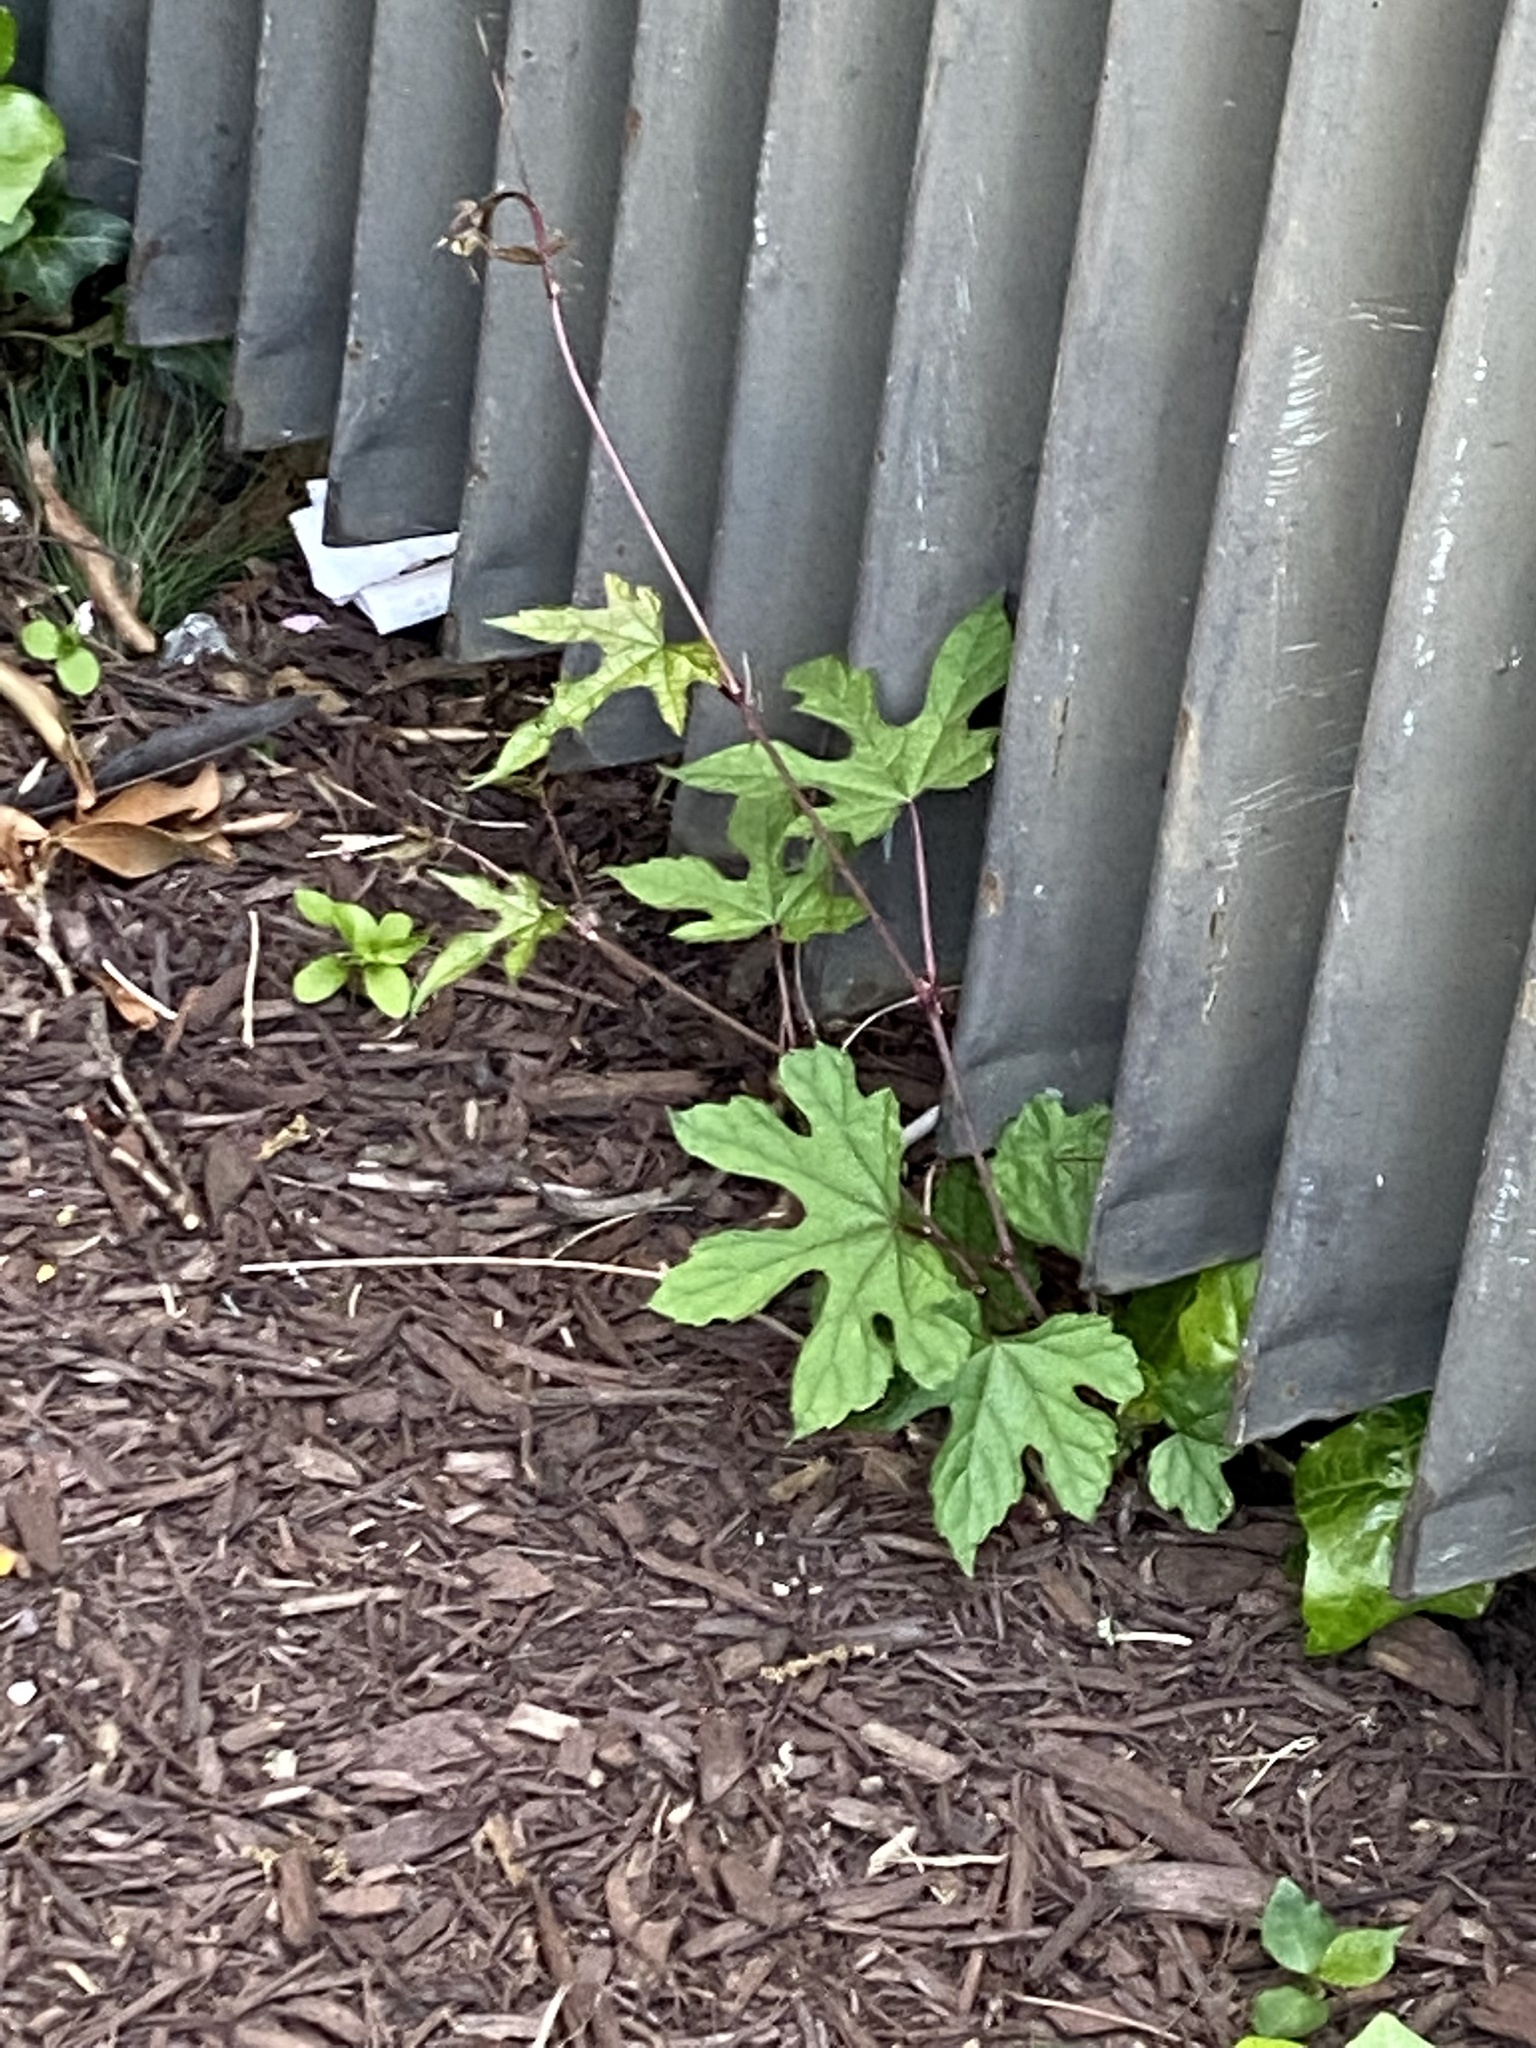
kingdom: Plantae
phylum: Tracheophyta
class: Magnoliopsida
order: Vitales
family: Vitaceae
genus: Ampelopsis
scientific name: Ampelopsis glandulosa
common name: Amur peppervine
